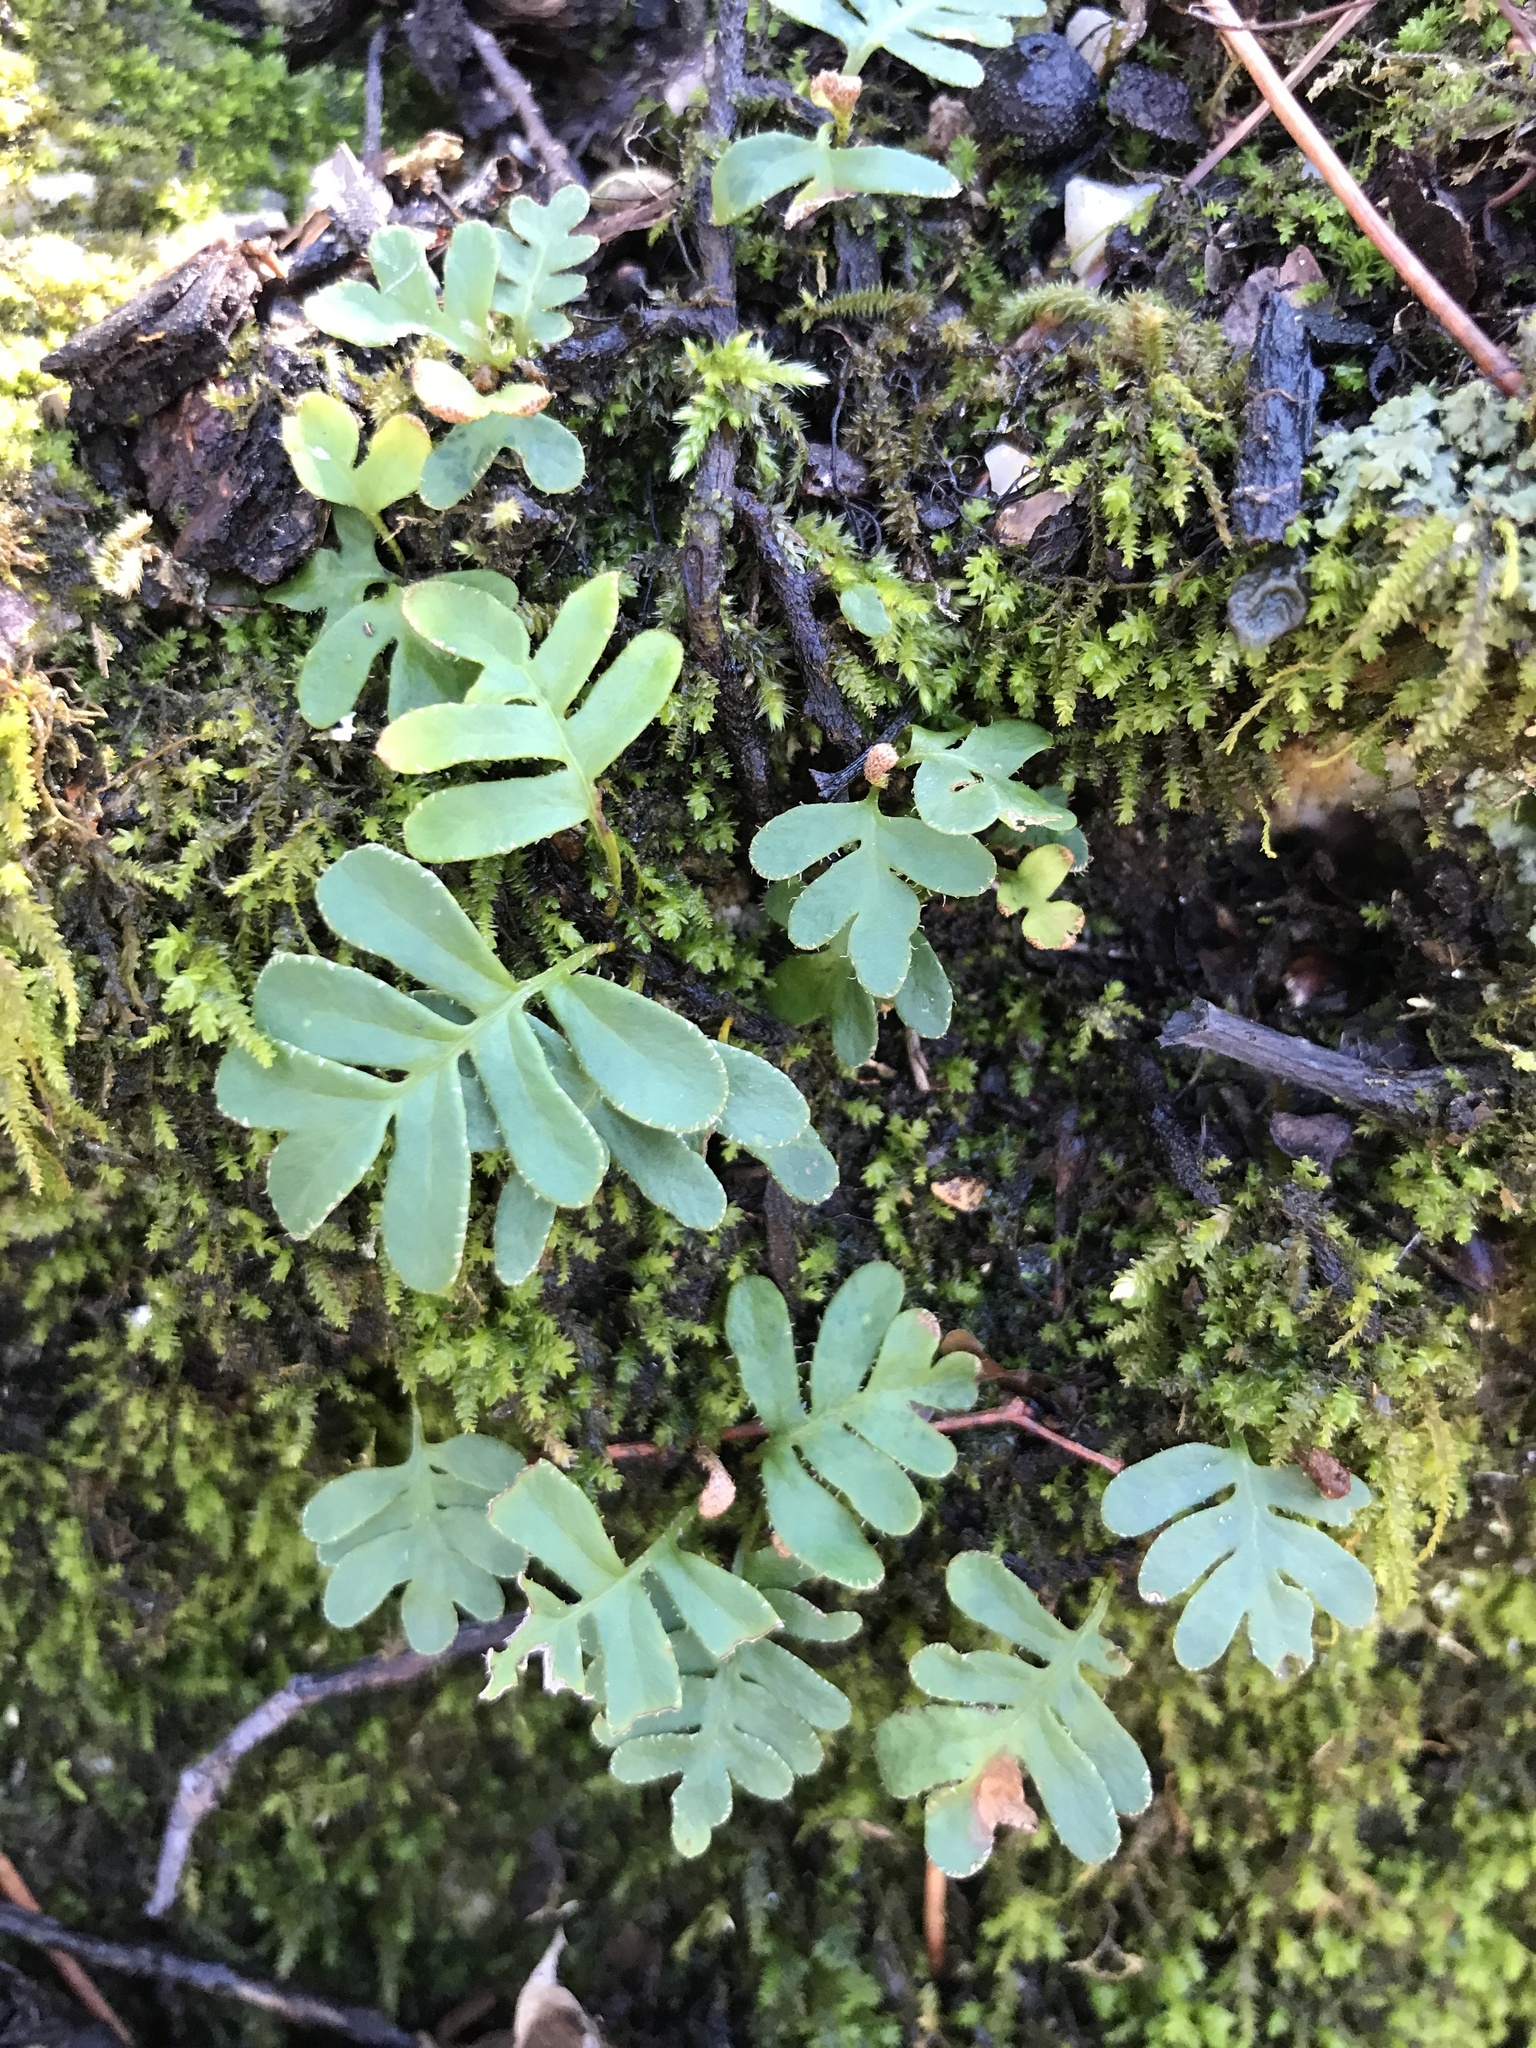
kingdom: Plantae
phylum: Tracheophyta
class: Polypodiopsida
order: Polypodiales
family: Polypodiaceae
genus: Pleopeltis
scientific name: Pleopeltis michauxiana
